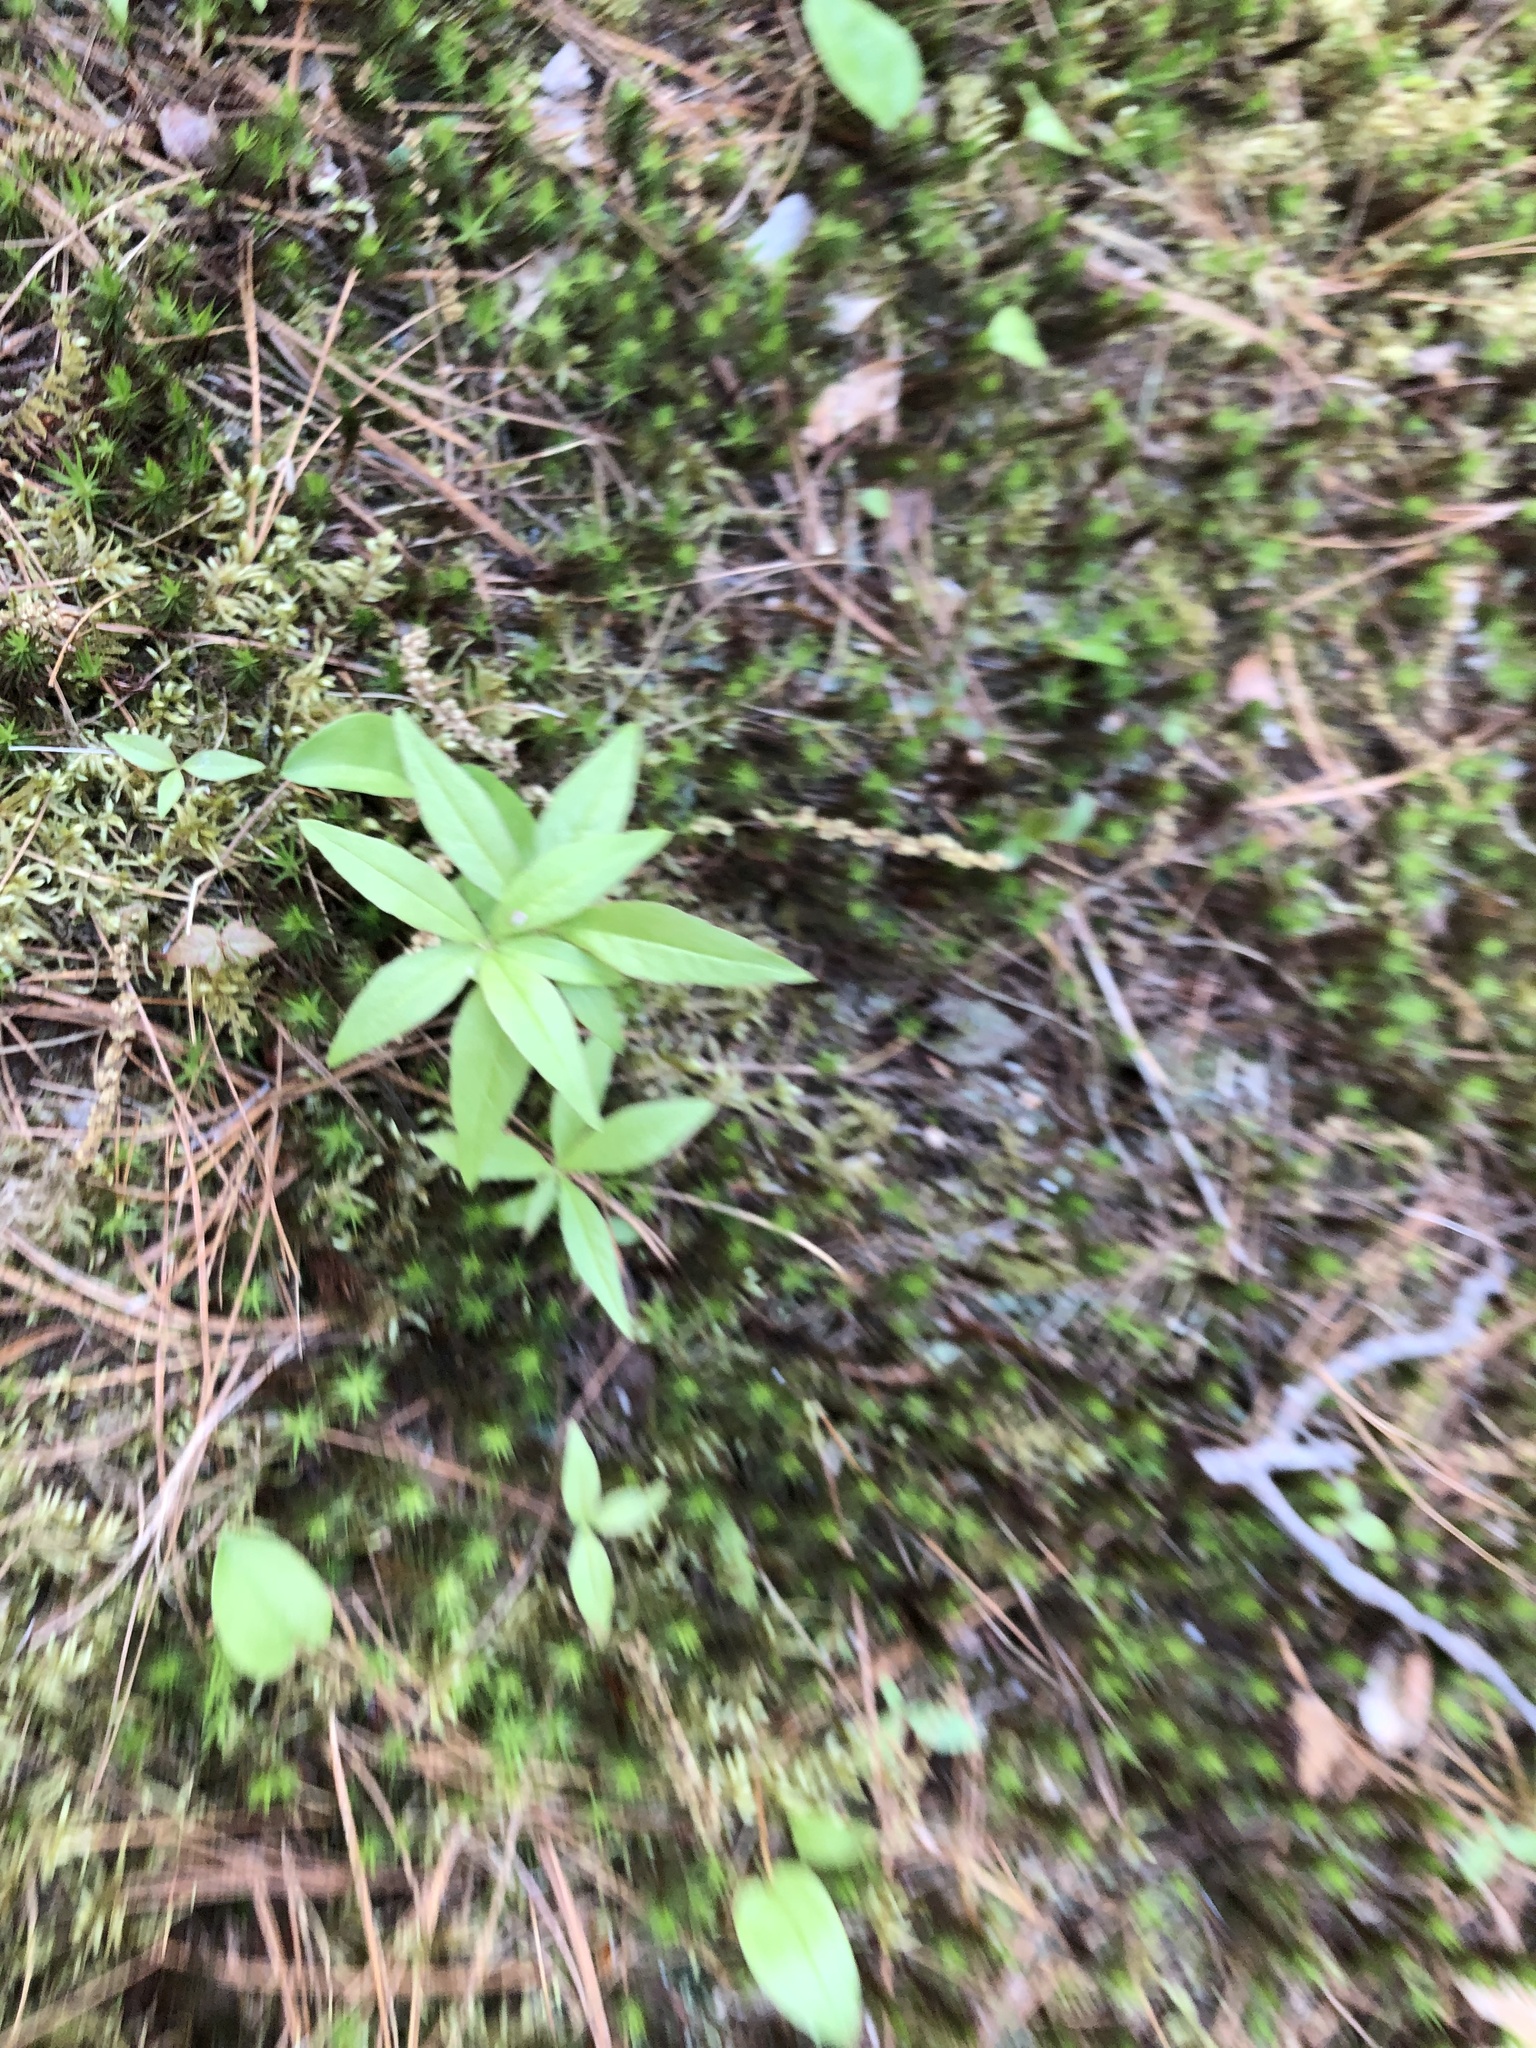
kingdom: Plantae
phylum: Tracheophyta
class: Magnoliopsida
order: Ericales
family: Primulaceae
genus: Lysimachia
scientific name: Lysimachia borealis
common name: American starflower
